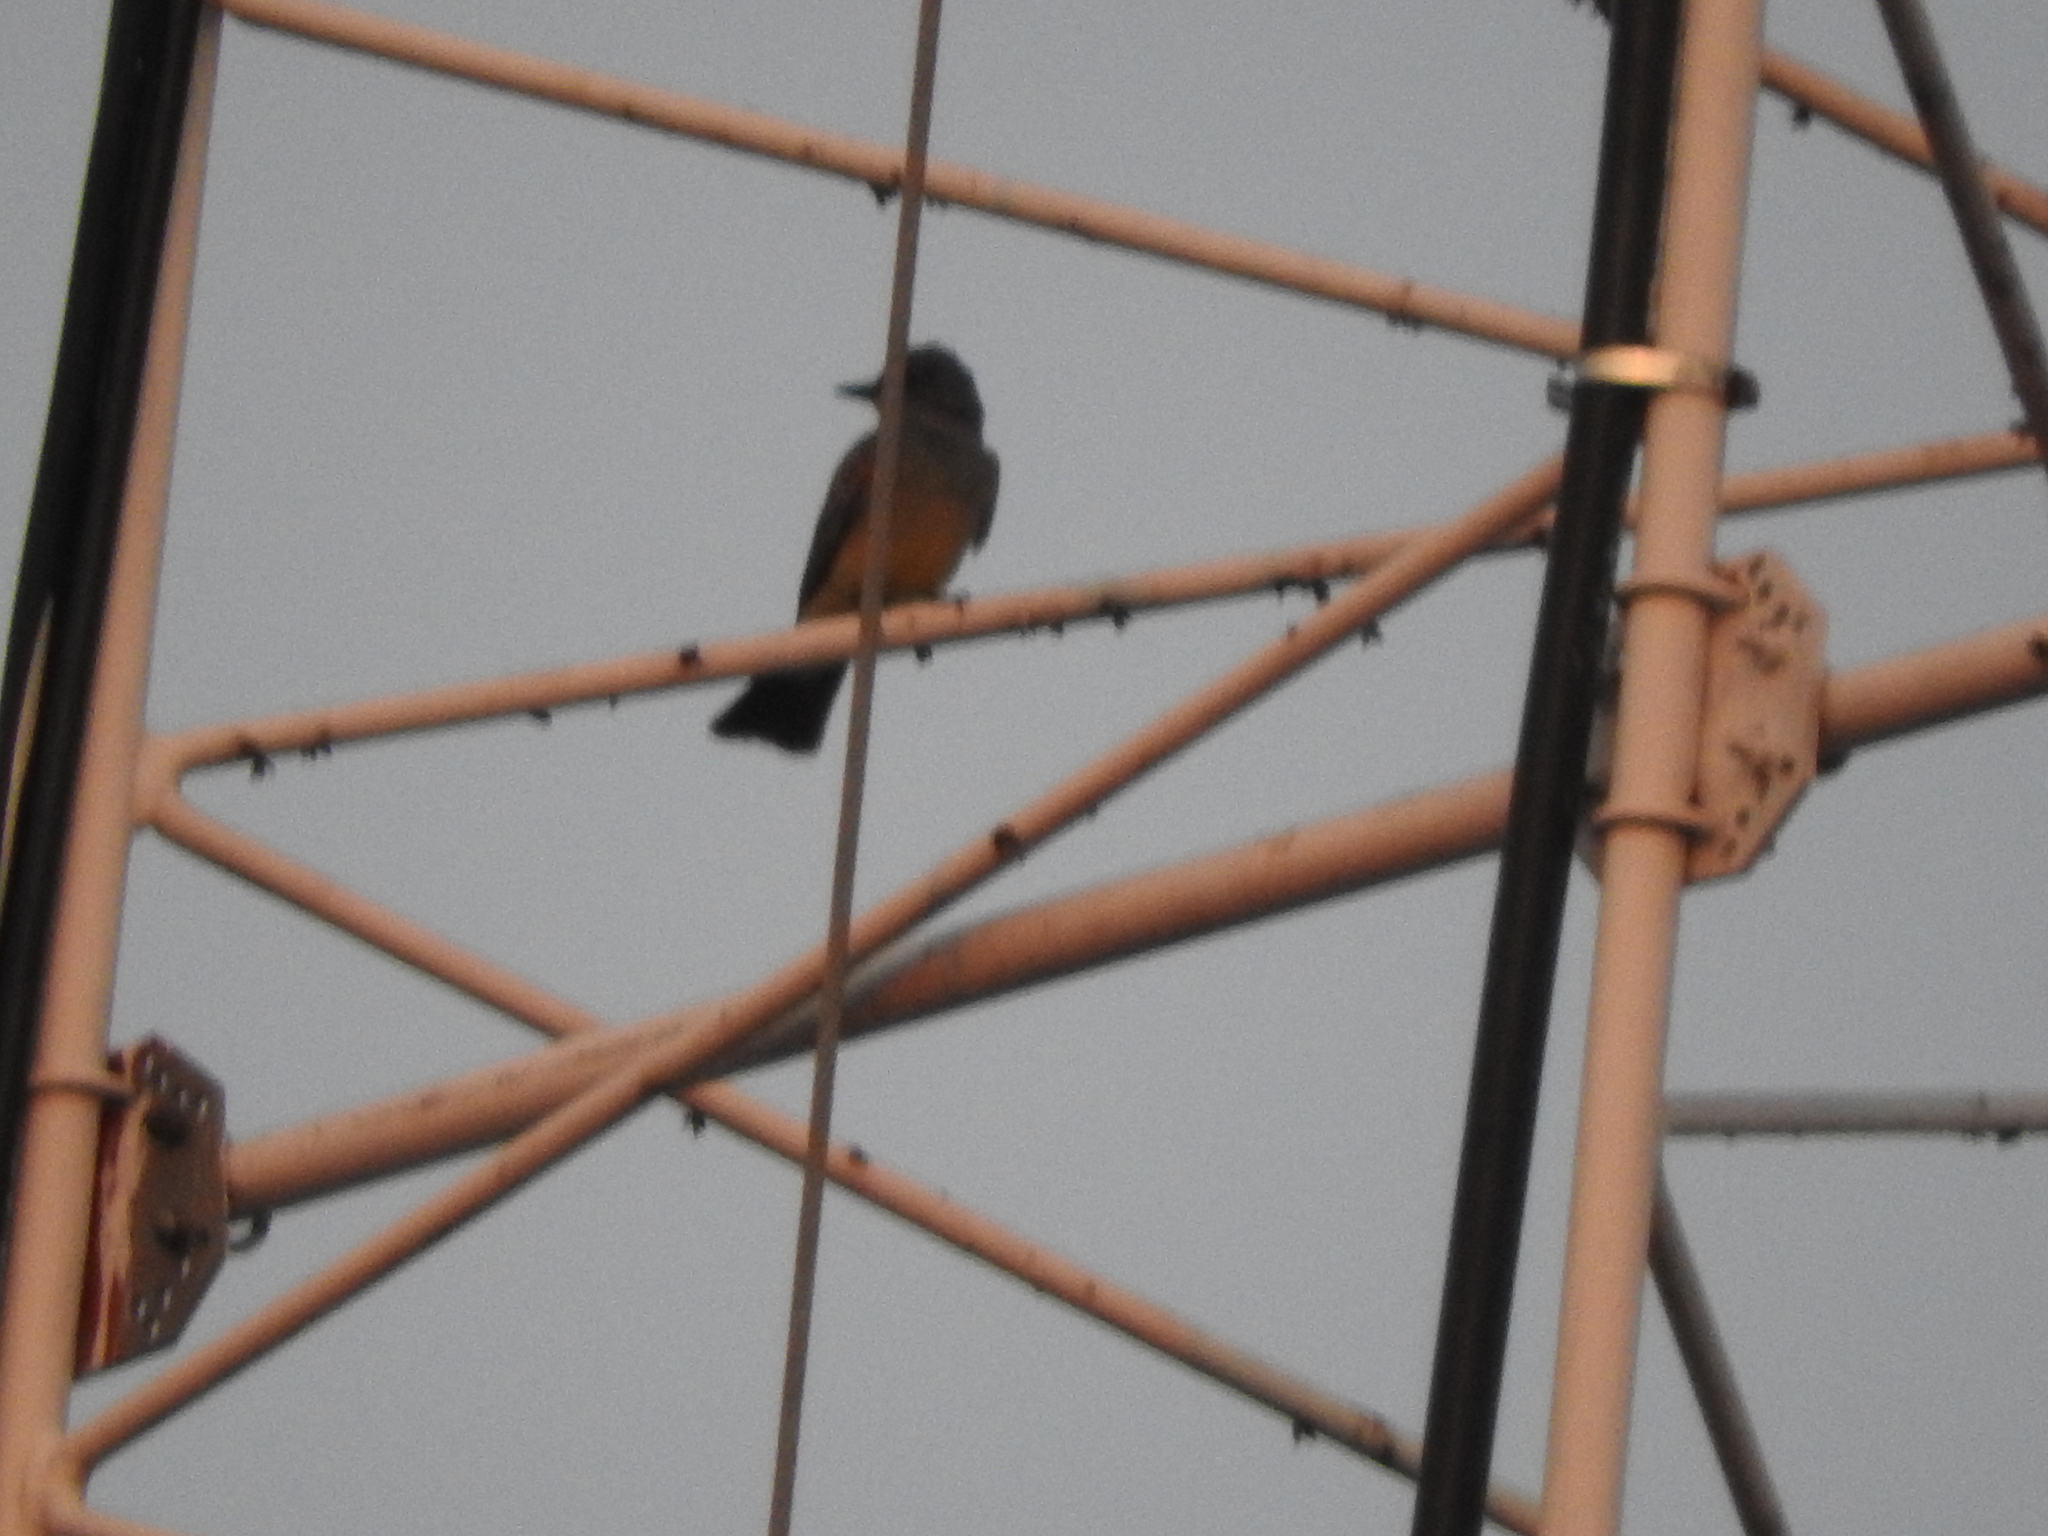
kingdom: Animalia
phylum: Chordata
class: Aves
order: Passeriformes
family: Tyrannidae
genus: Tyrannus
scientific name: Tyrannus vociferans
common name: Cassin's kingbird
